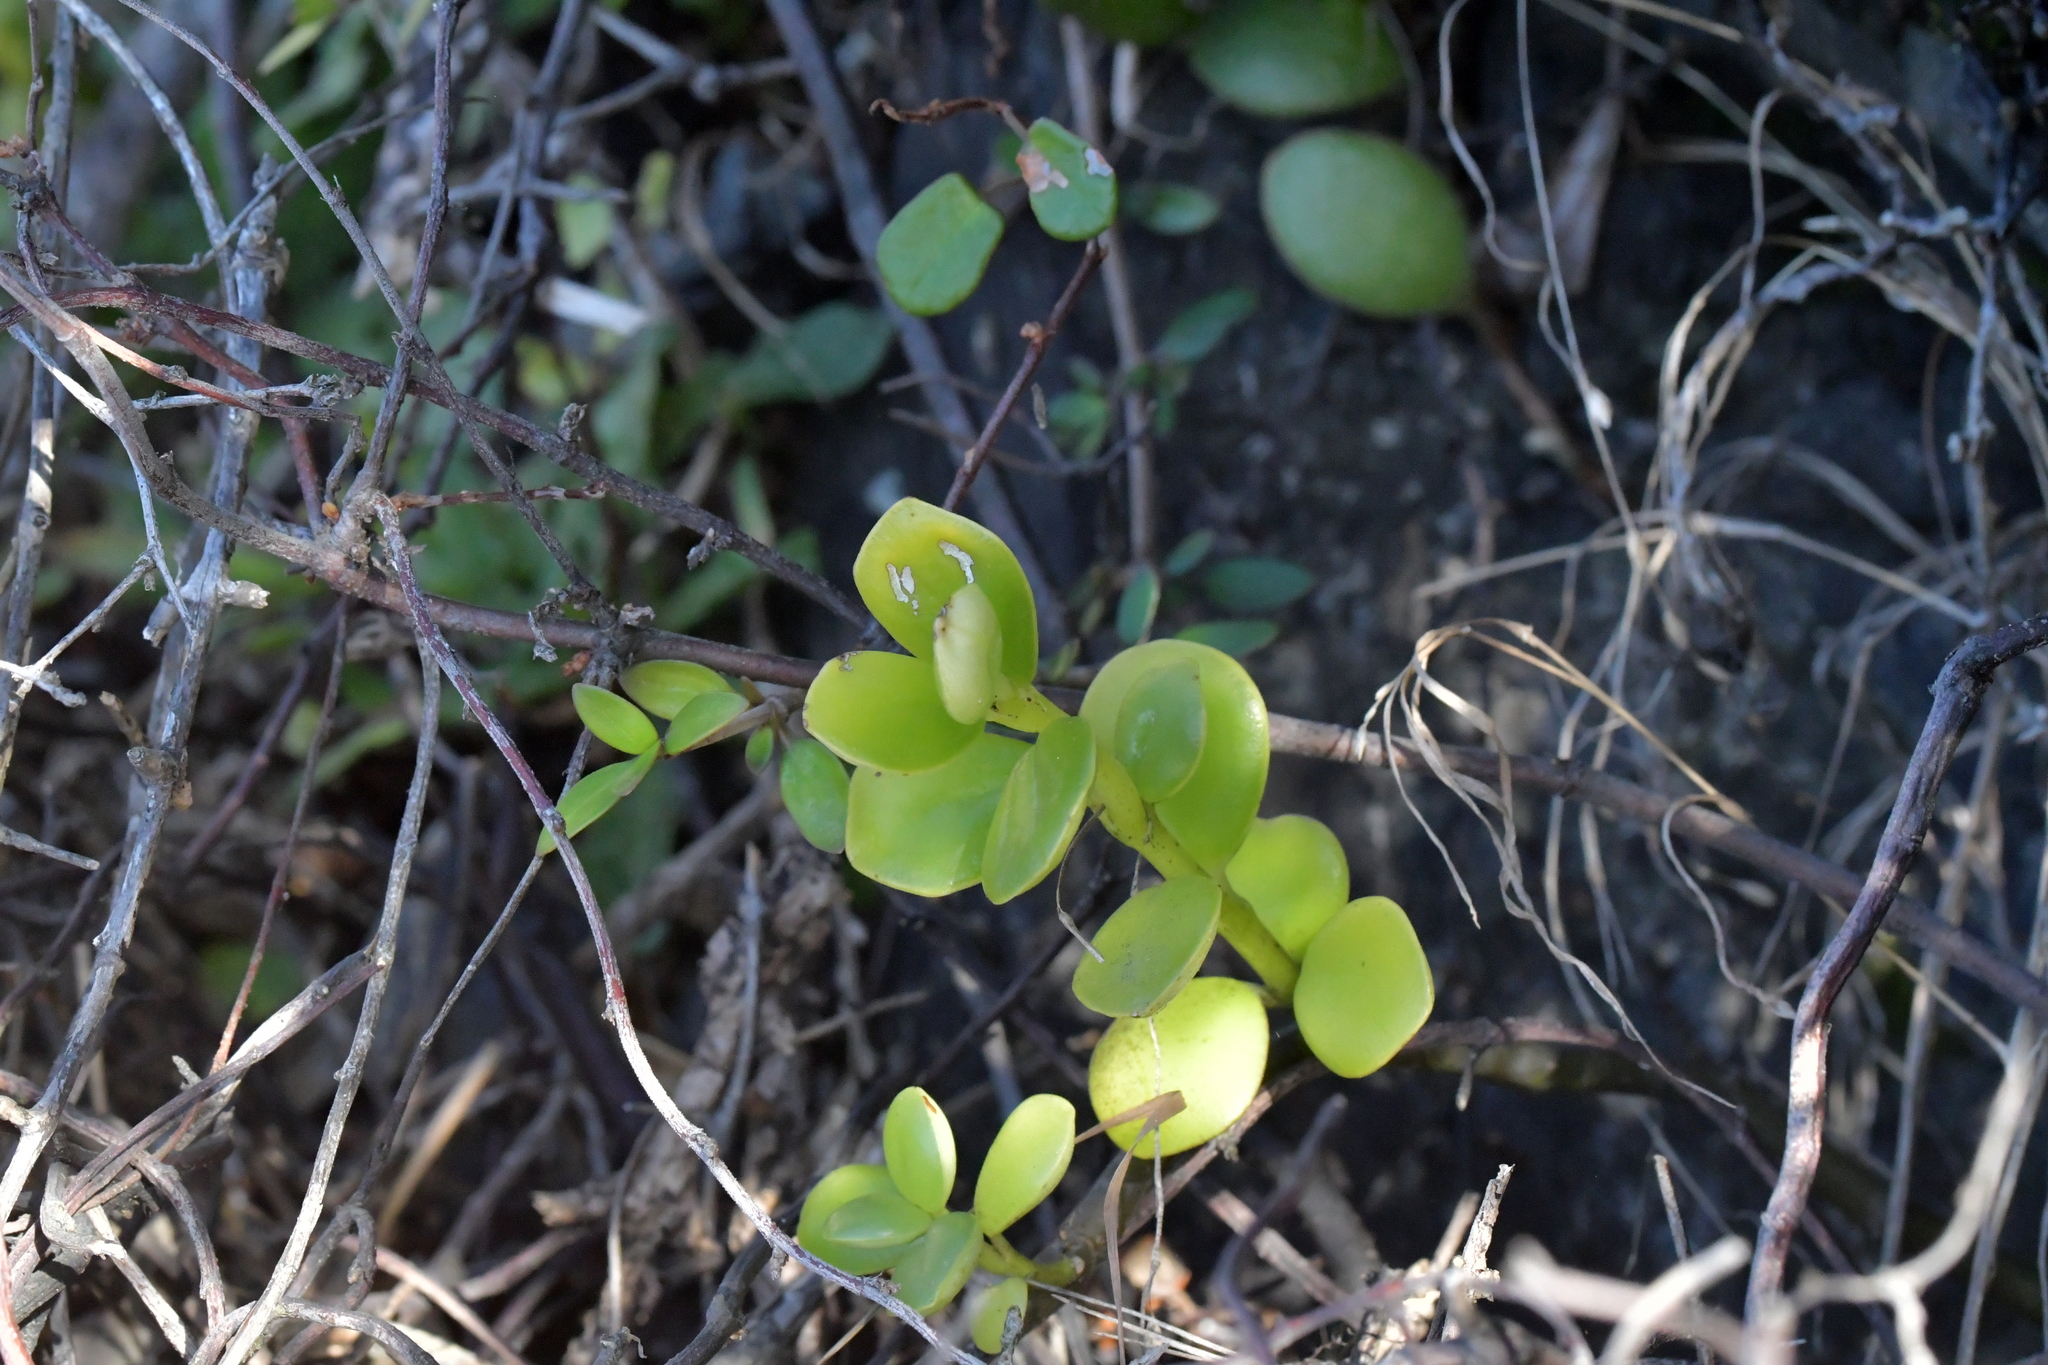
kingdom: Plantae
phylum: Tracheophyta
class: Magnoliopsida
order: Piperales
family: Piperaceae
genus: Peperomia
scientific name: Peperomia urvilleana
